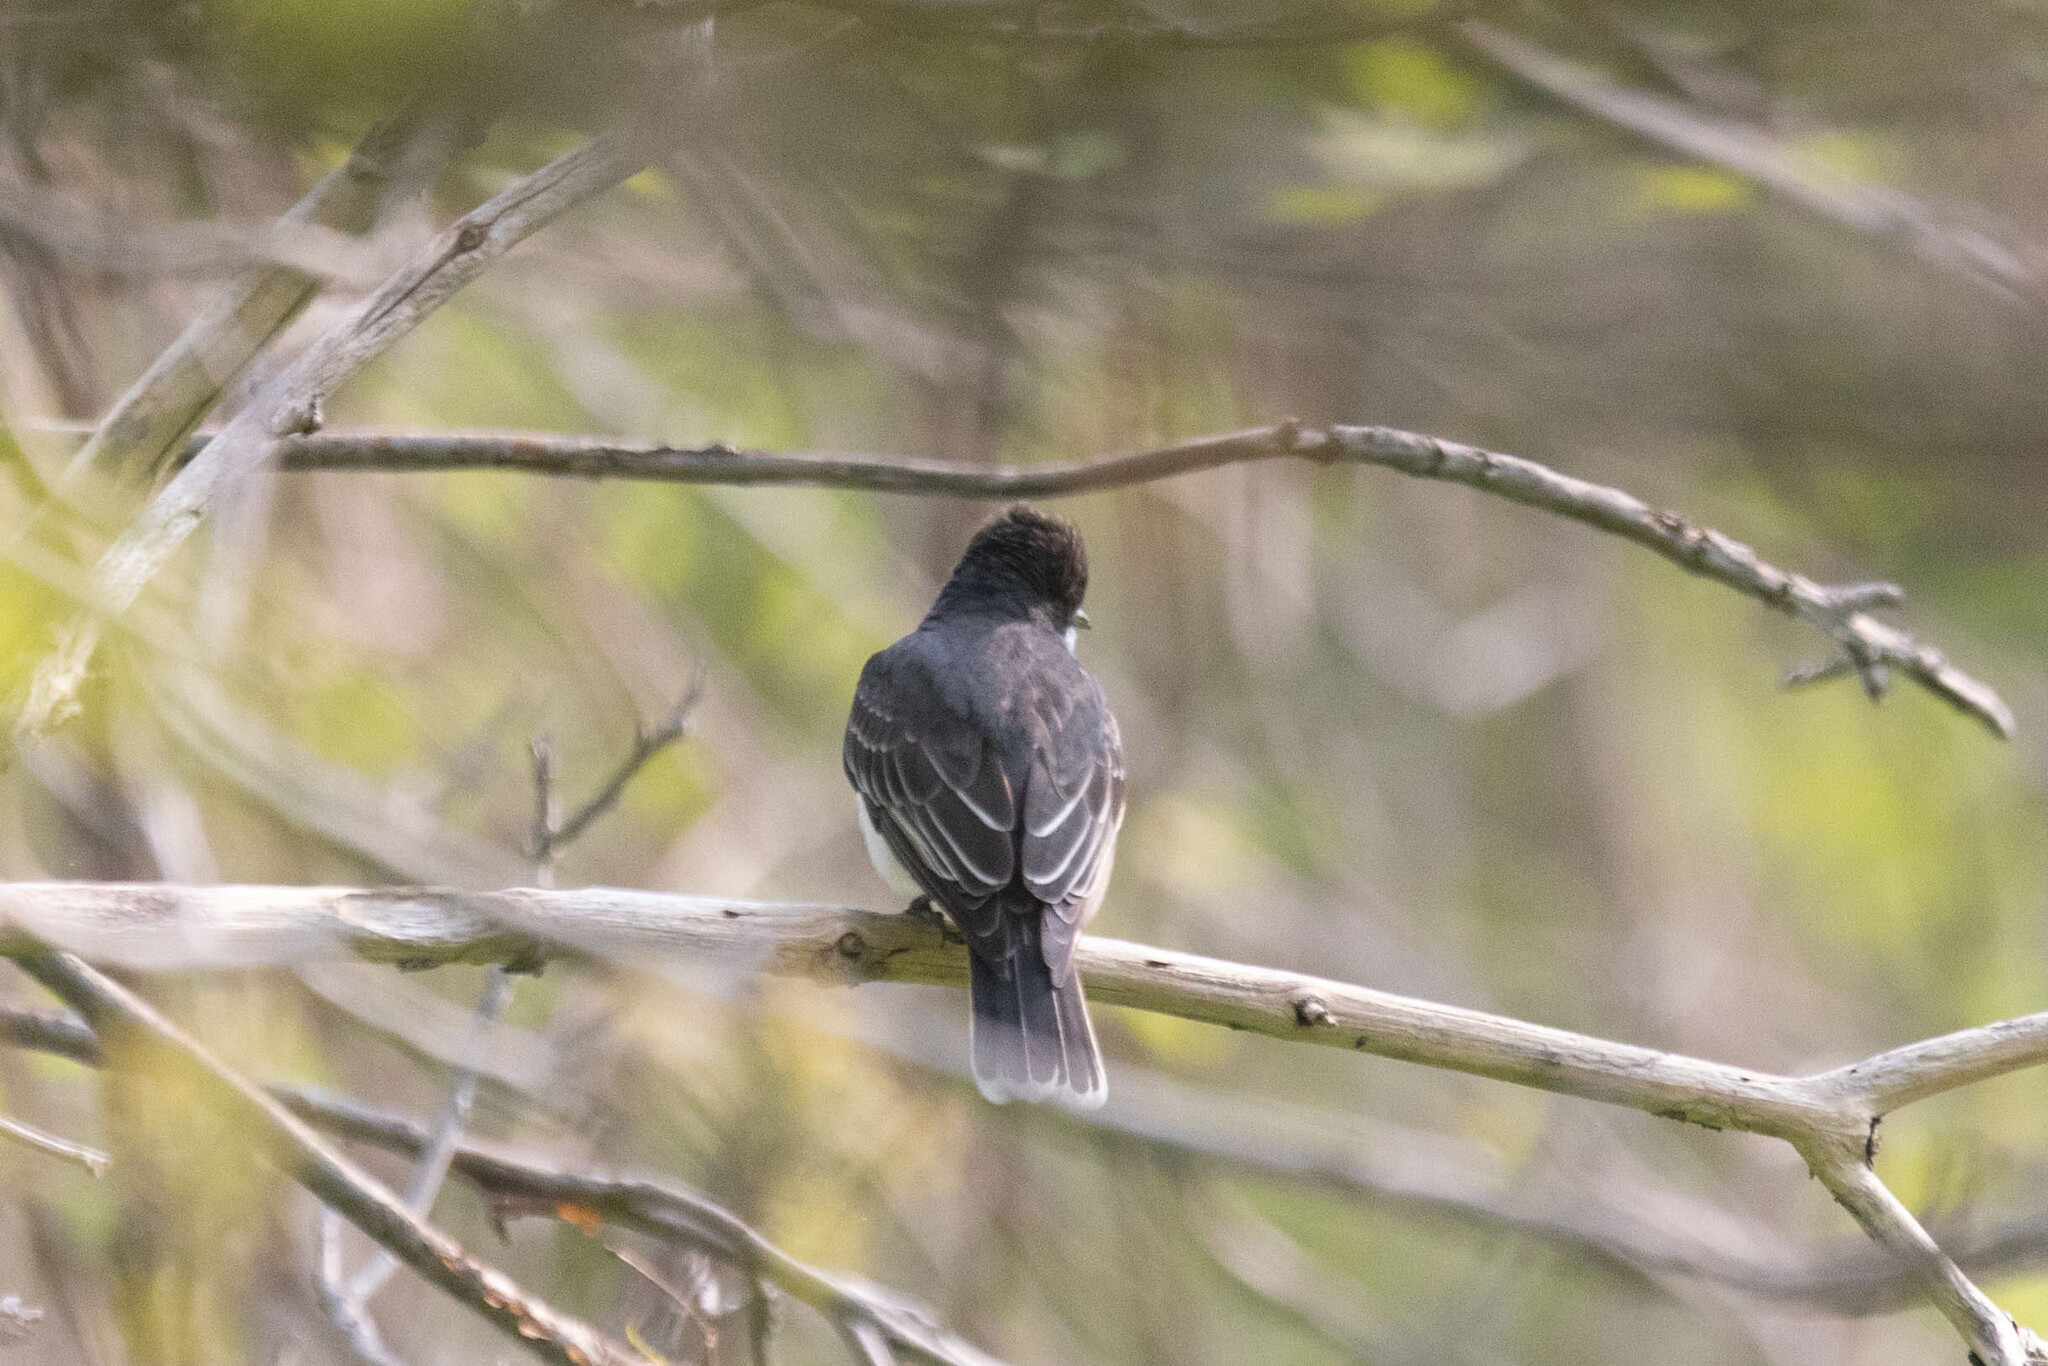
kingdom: Animalia
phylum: Chordata
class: Aves
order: Passeriformes
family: Tyrannidae
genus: Tyrannus
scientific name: Tyrannus tyrannus
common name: Eastern kingbird
